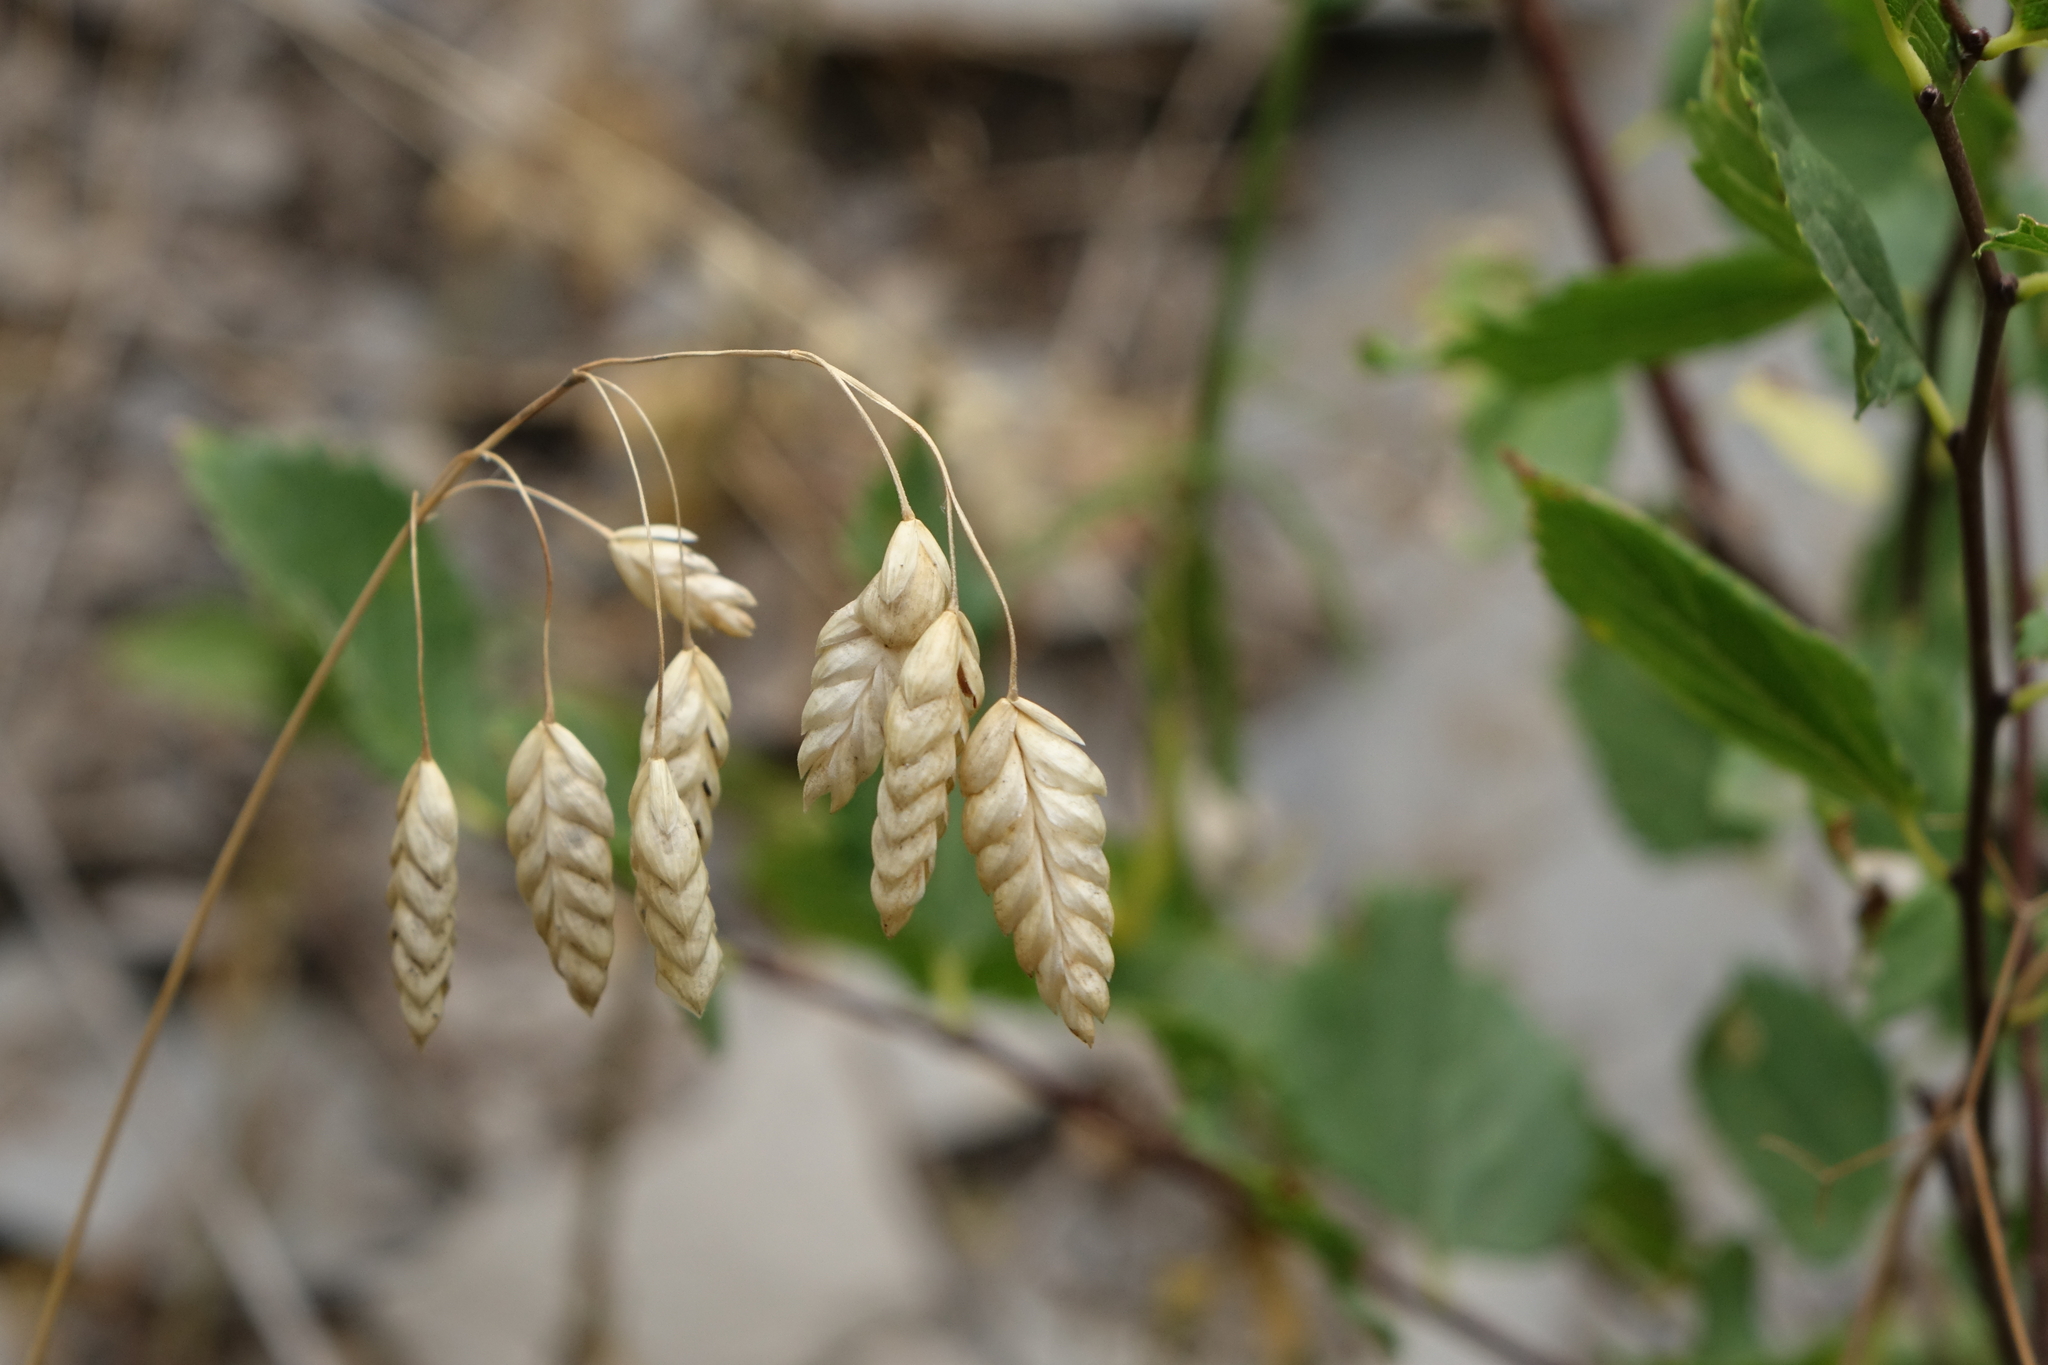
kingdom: Plantae
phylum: Tracheophyta
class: Liliopsida
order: Poales
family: Poaceae
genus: Bromus
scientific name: Bromus briziformis
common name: Rattlesnake brome
